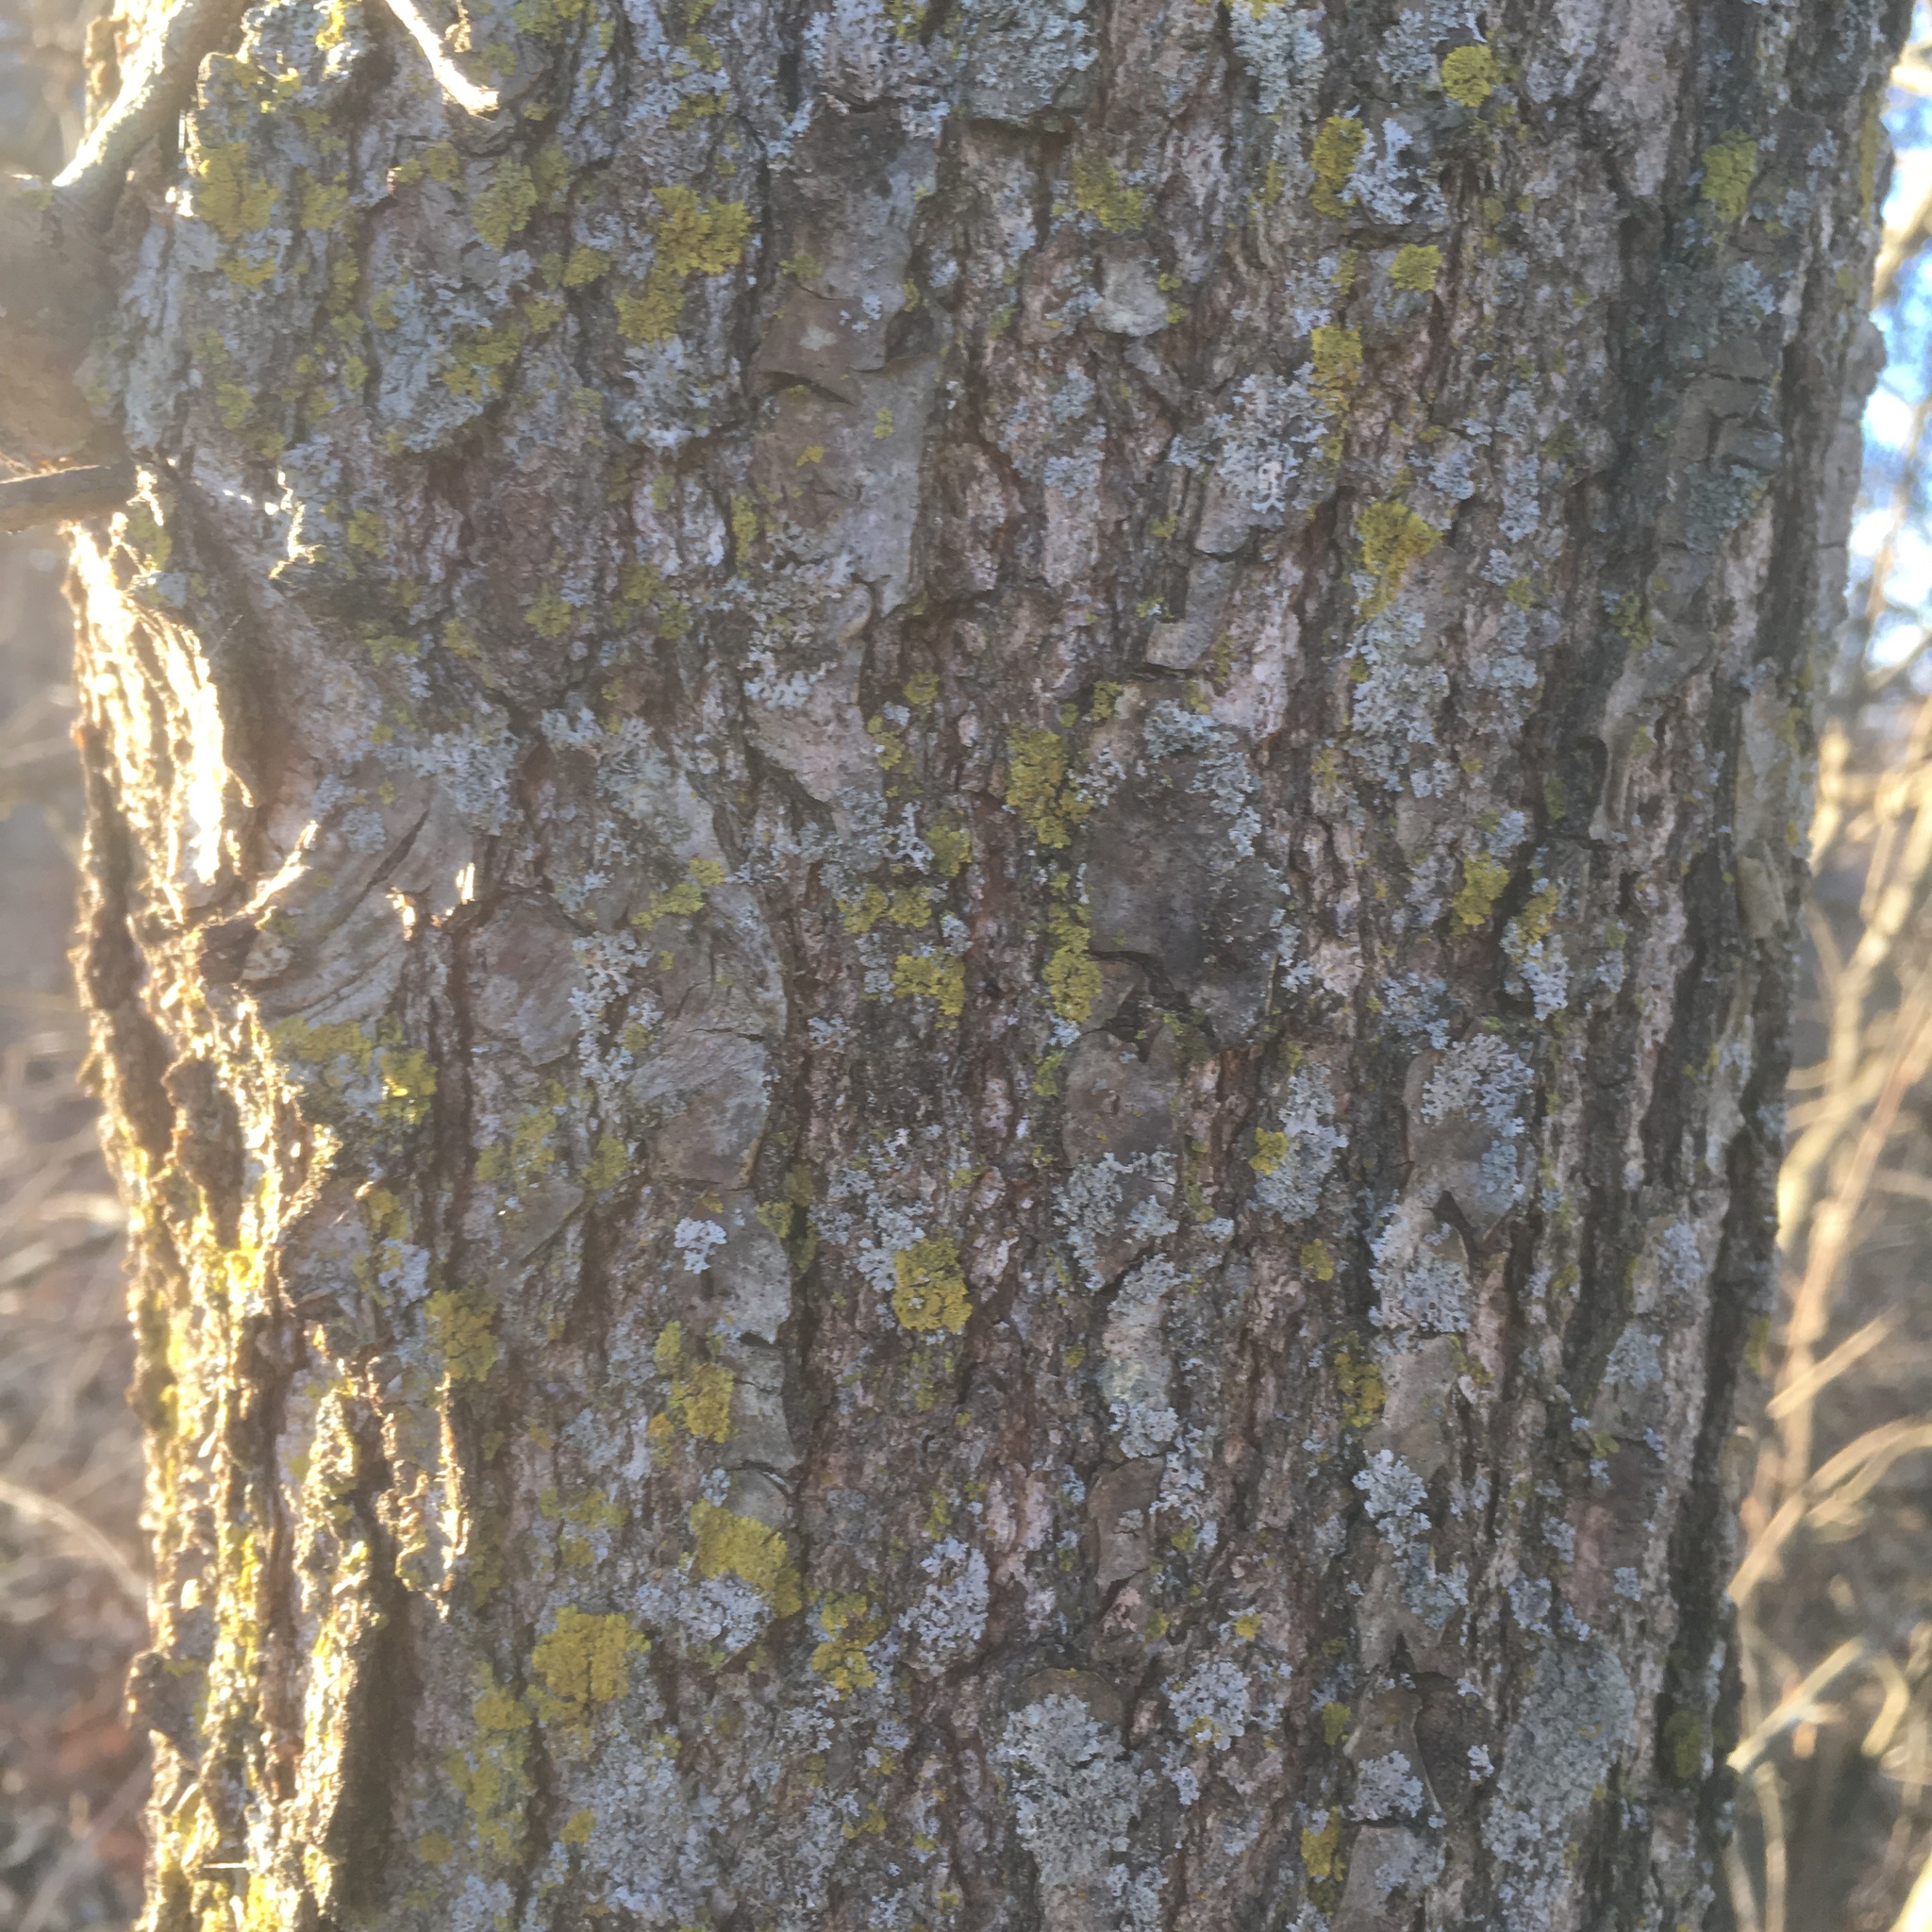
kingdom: Plantae
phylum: Tracheophyta
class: Magnoliopsida
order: Fagales
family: Fagaceae
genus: Quercus
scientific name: Quercus imbricaria
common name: Shingle oak
